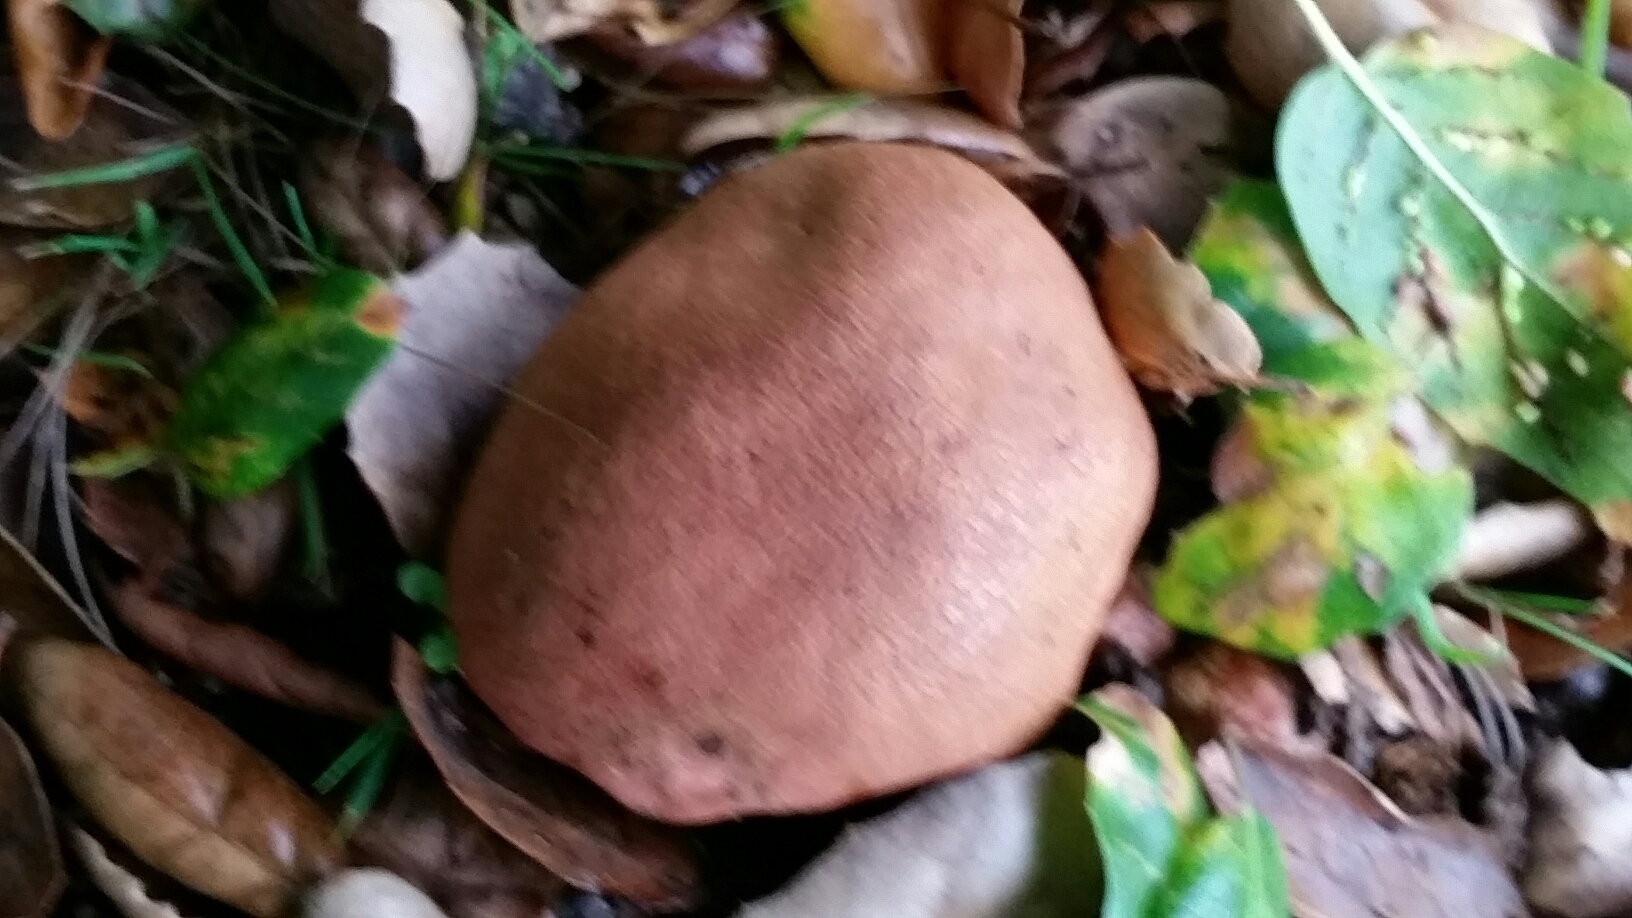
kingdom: Fungi
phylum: Basidiomycota
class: Agaricomycetes
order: Boletales
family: Boletaceae
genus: Suillellus
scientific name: Suillellus amygdalinus
